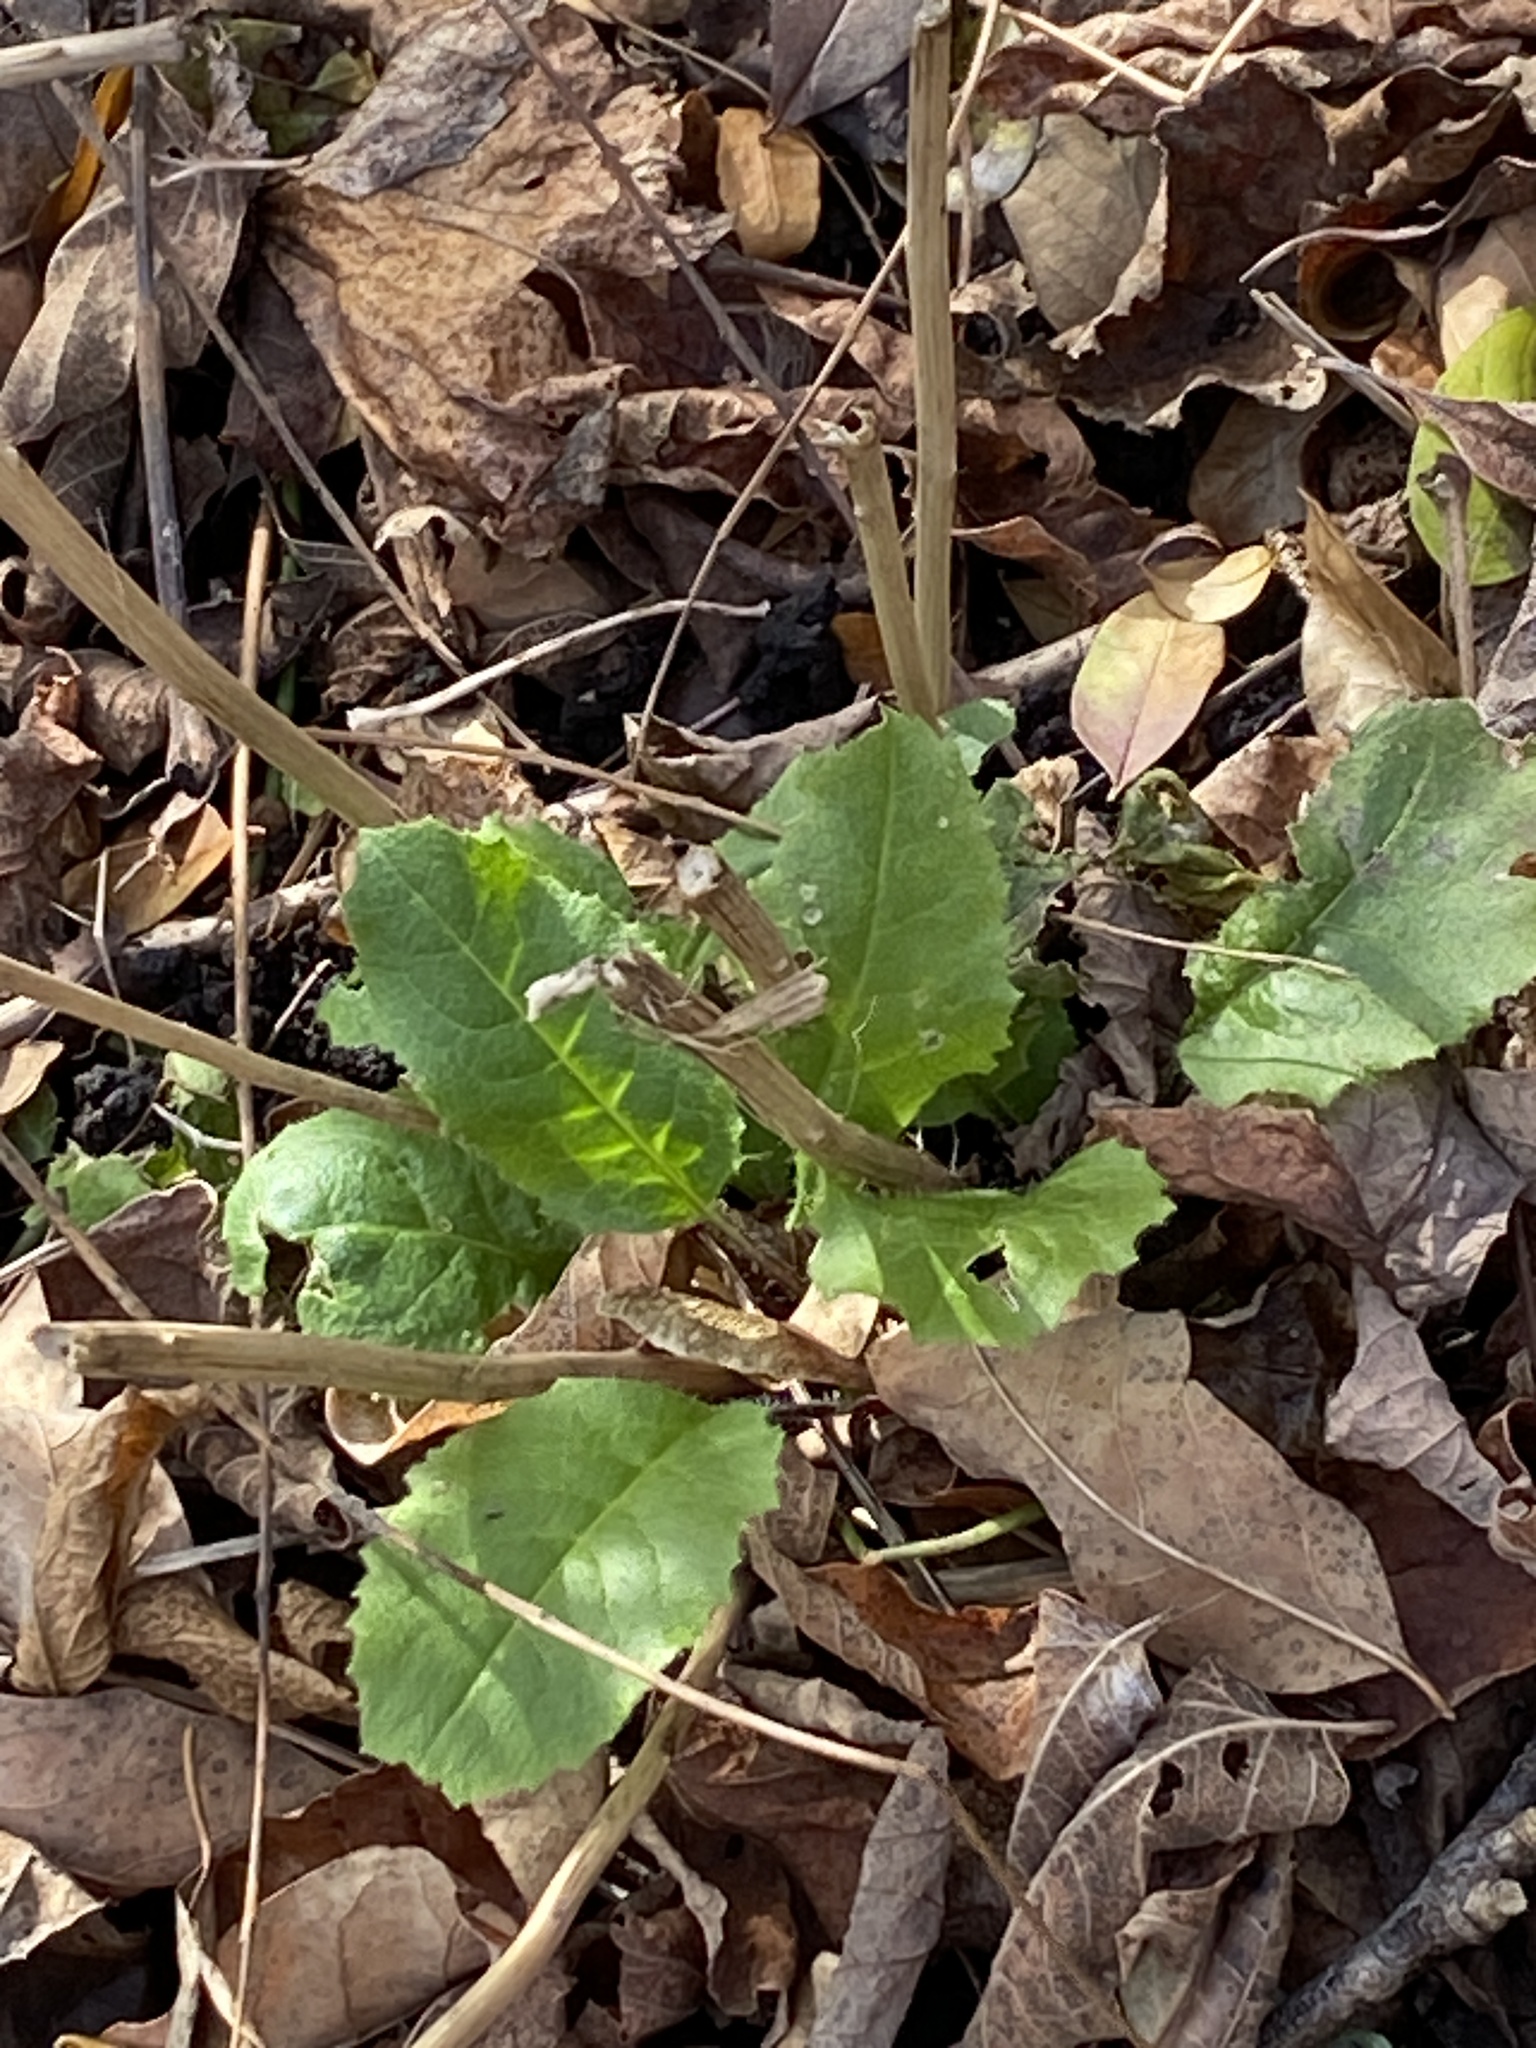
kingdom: Plantae
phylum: Tracheophyta
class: Magnoliopsida
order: Brassicales
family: Brassicaceae
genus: Hesperis
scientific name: Hesperis matronalis
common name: Dame's-violet
